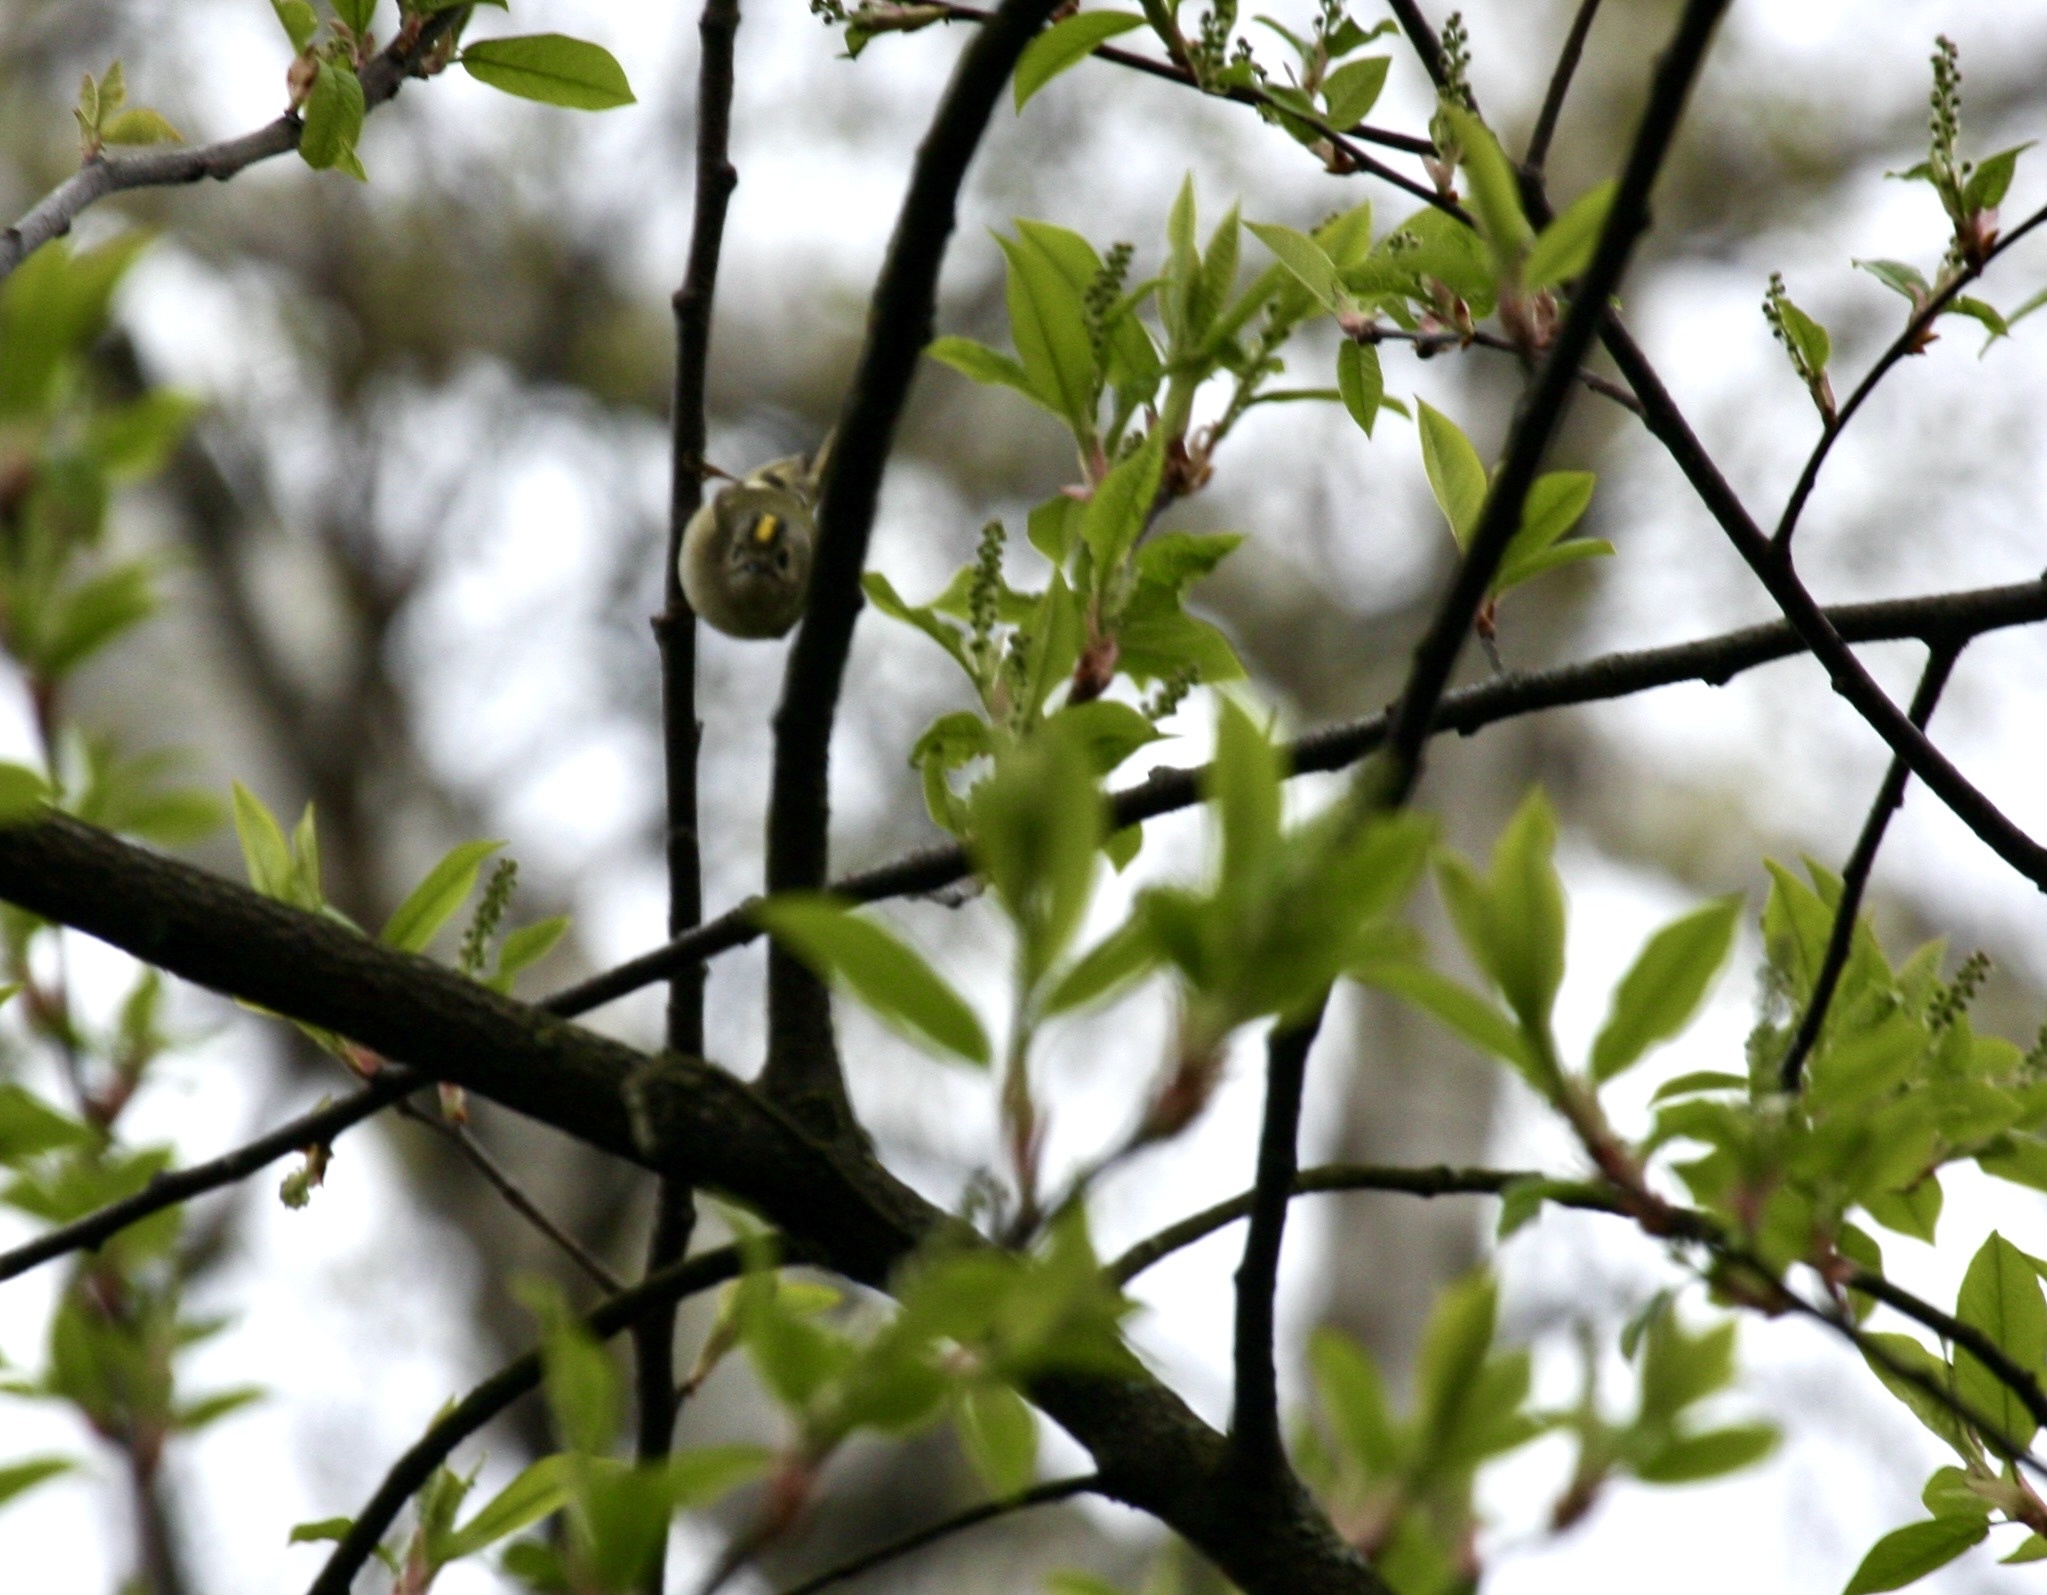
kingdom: Animalia
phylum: Chordata
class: Aves
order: Passeriformes
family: Regulidae
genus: Regulus
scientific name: Regulus regulus
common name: Goldcrest
